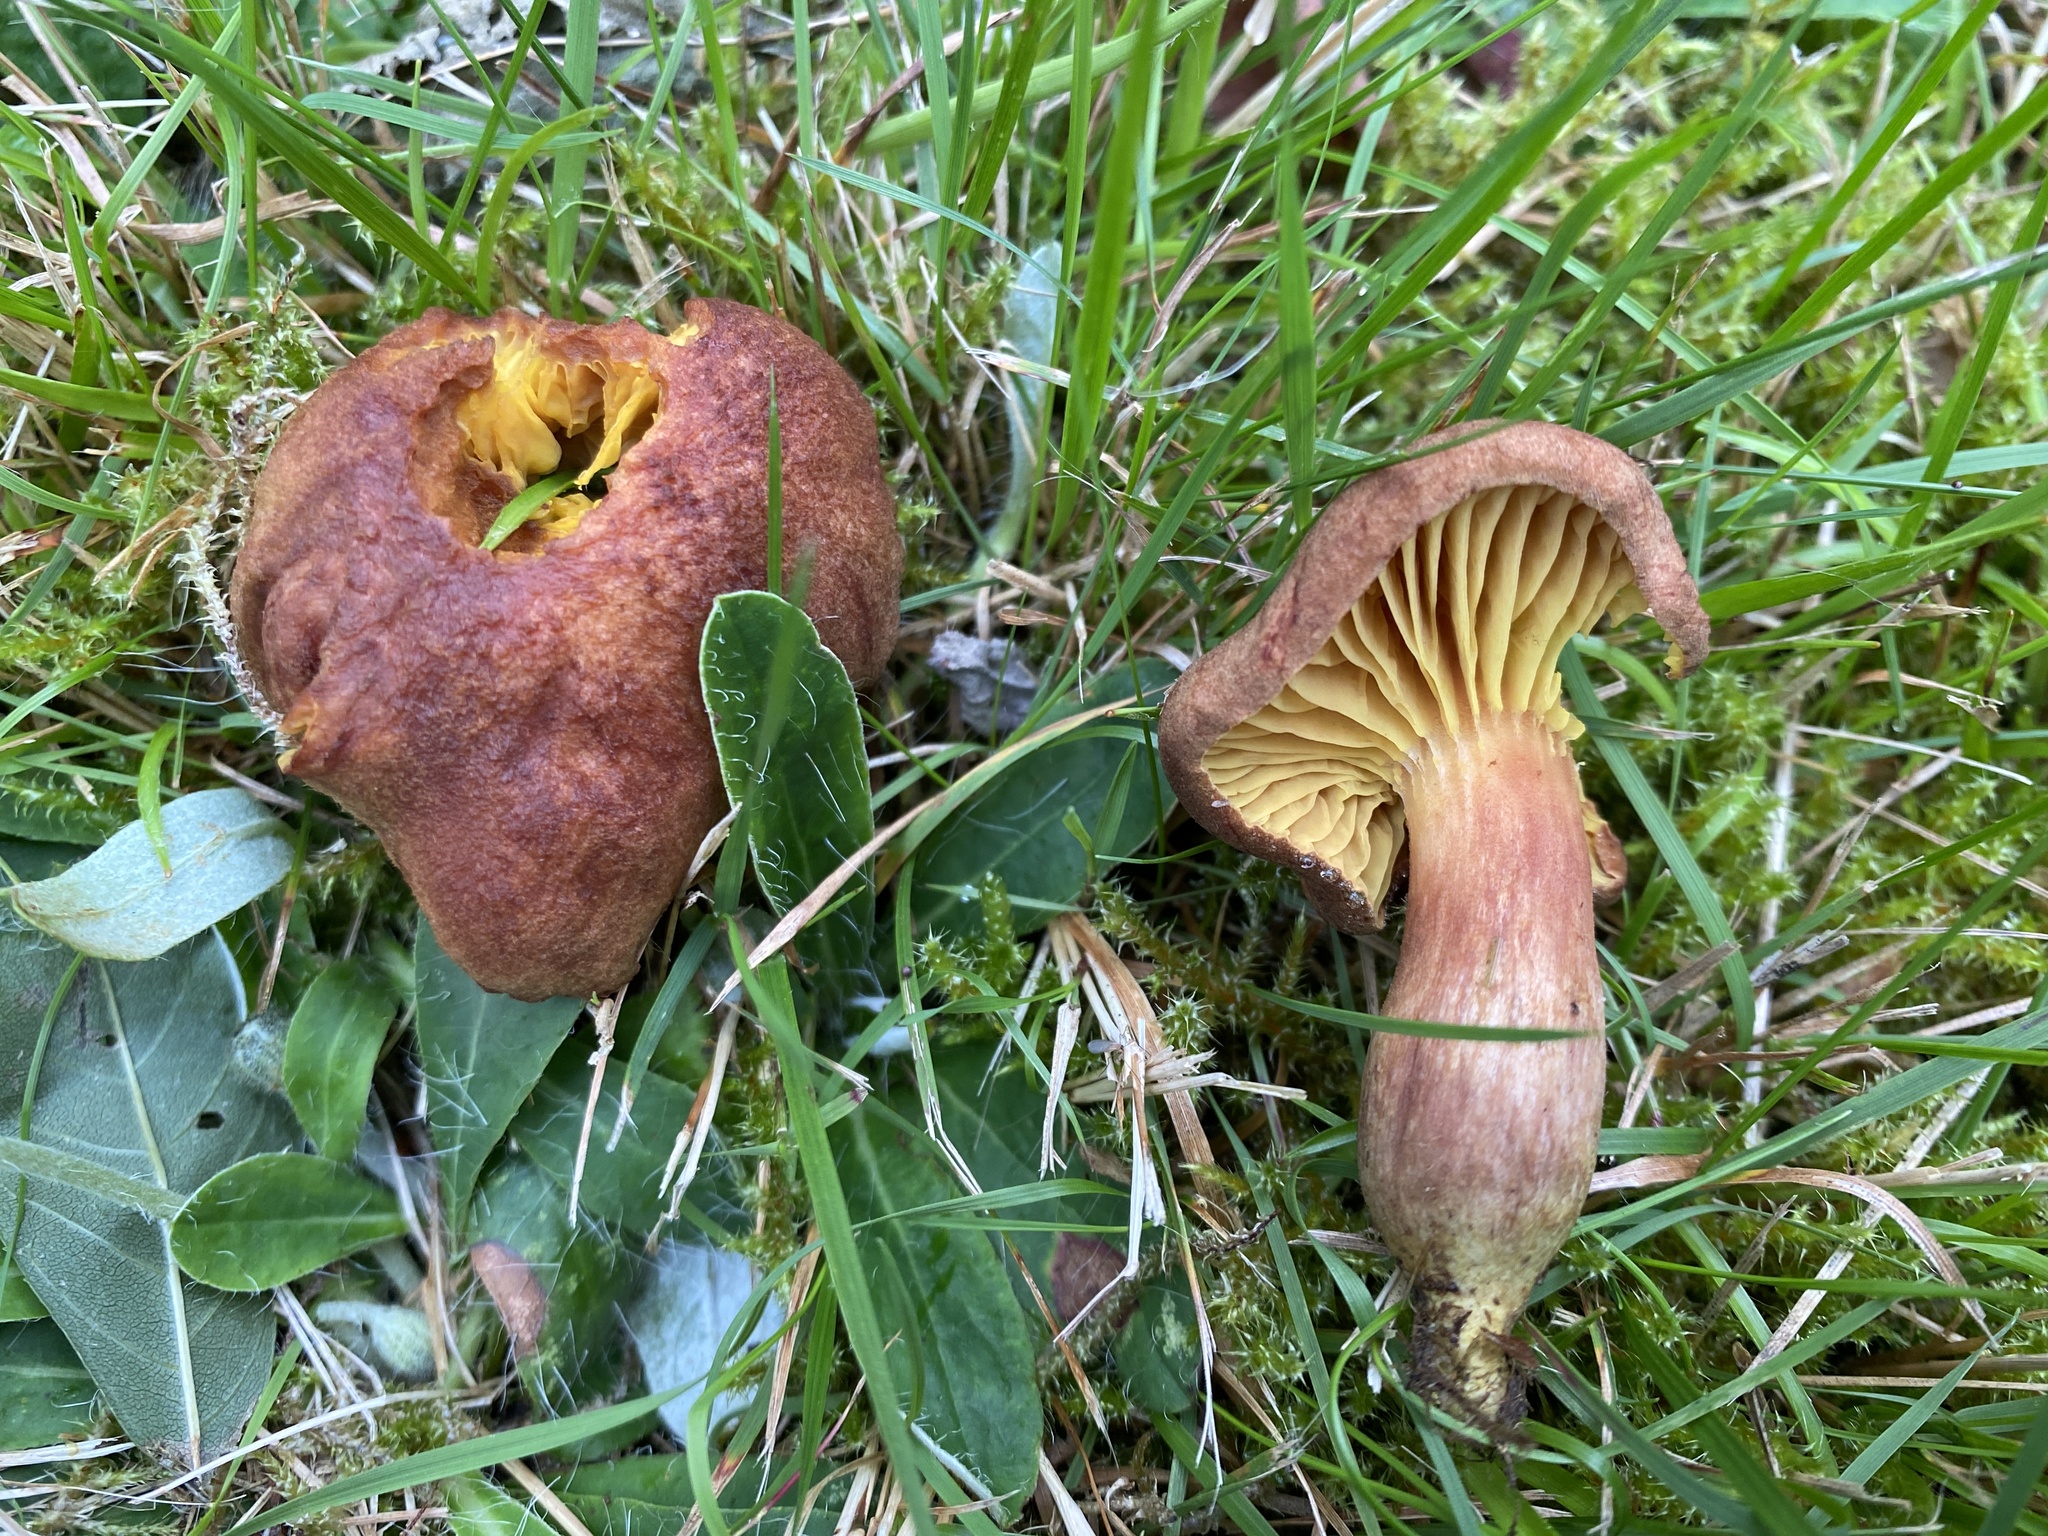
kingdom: Fungi
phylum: Basidiomycota
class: Agaricomycetes
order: Boletales
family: Boletaceae
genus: Phylloporus
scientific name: Phylloporus pelletieri
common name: Golden gilled bolete
